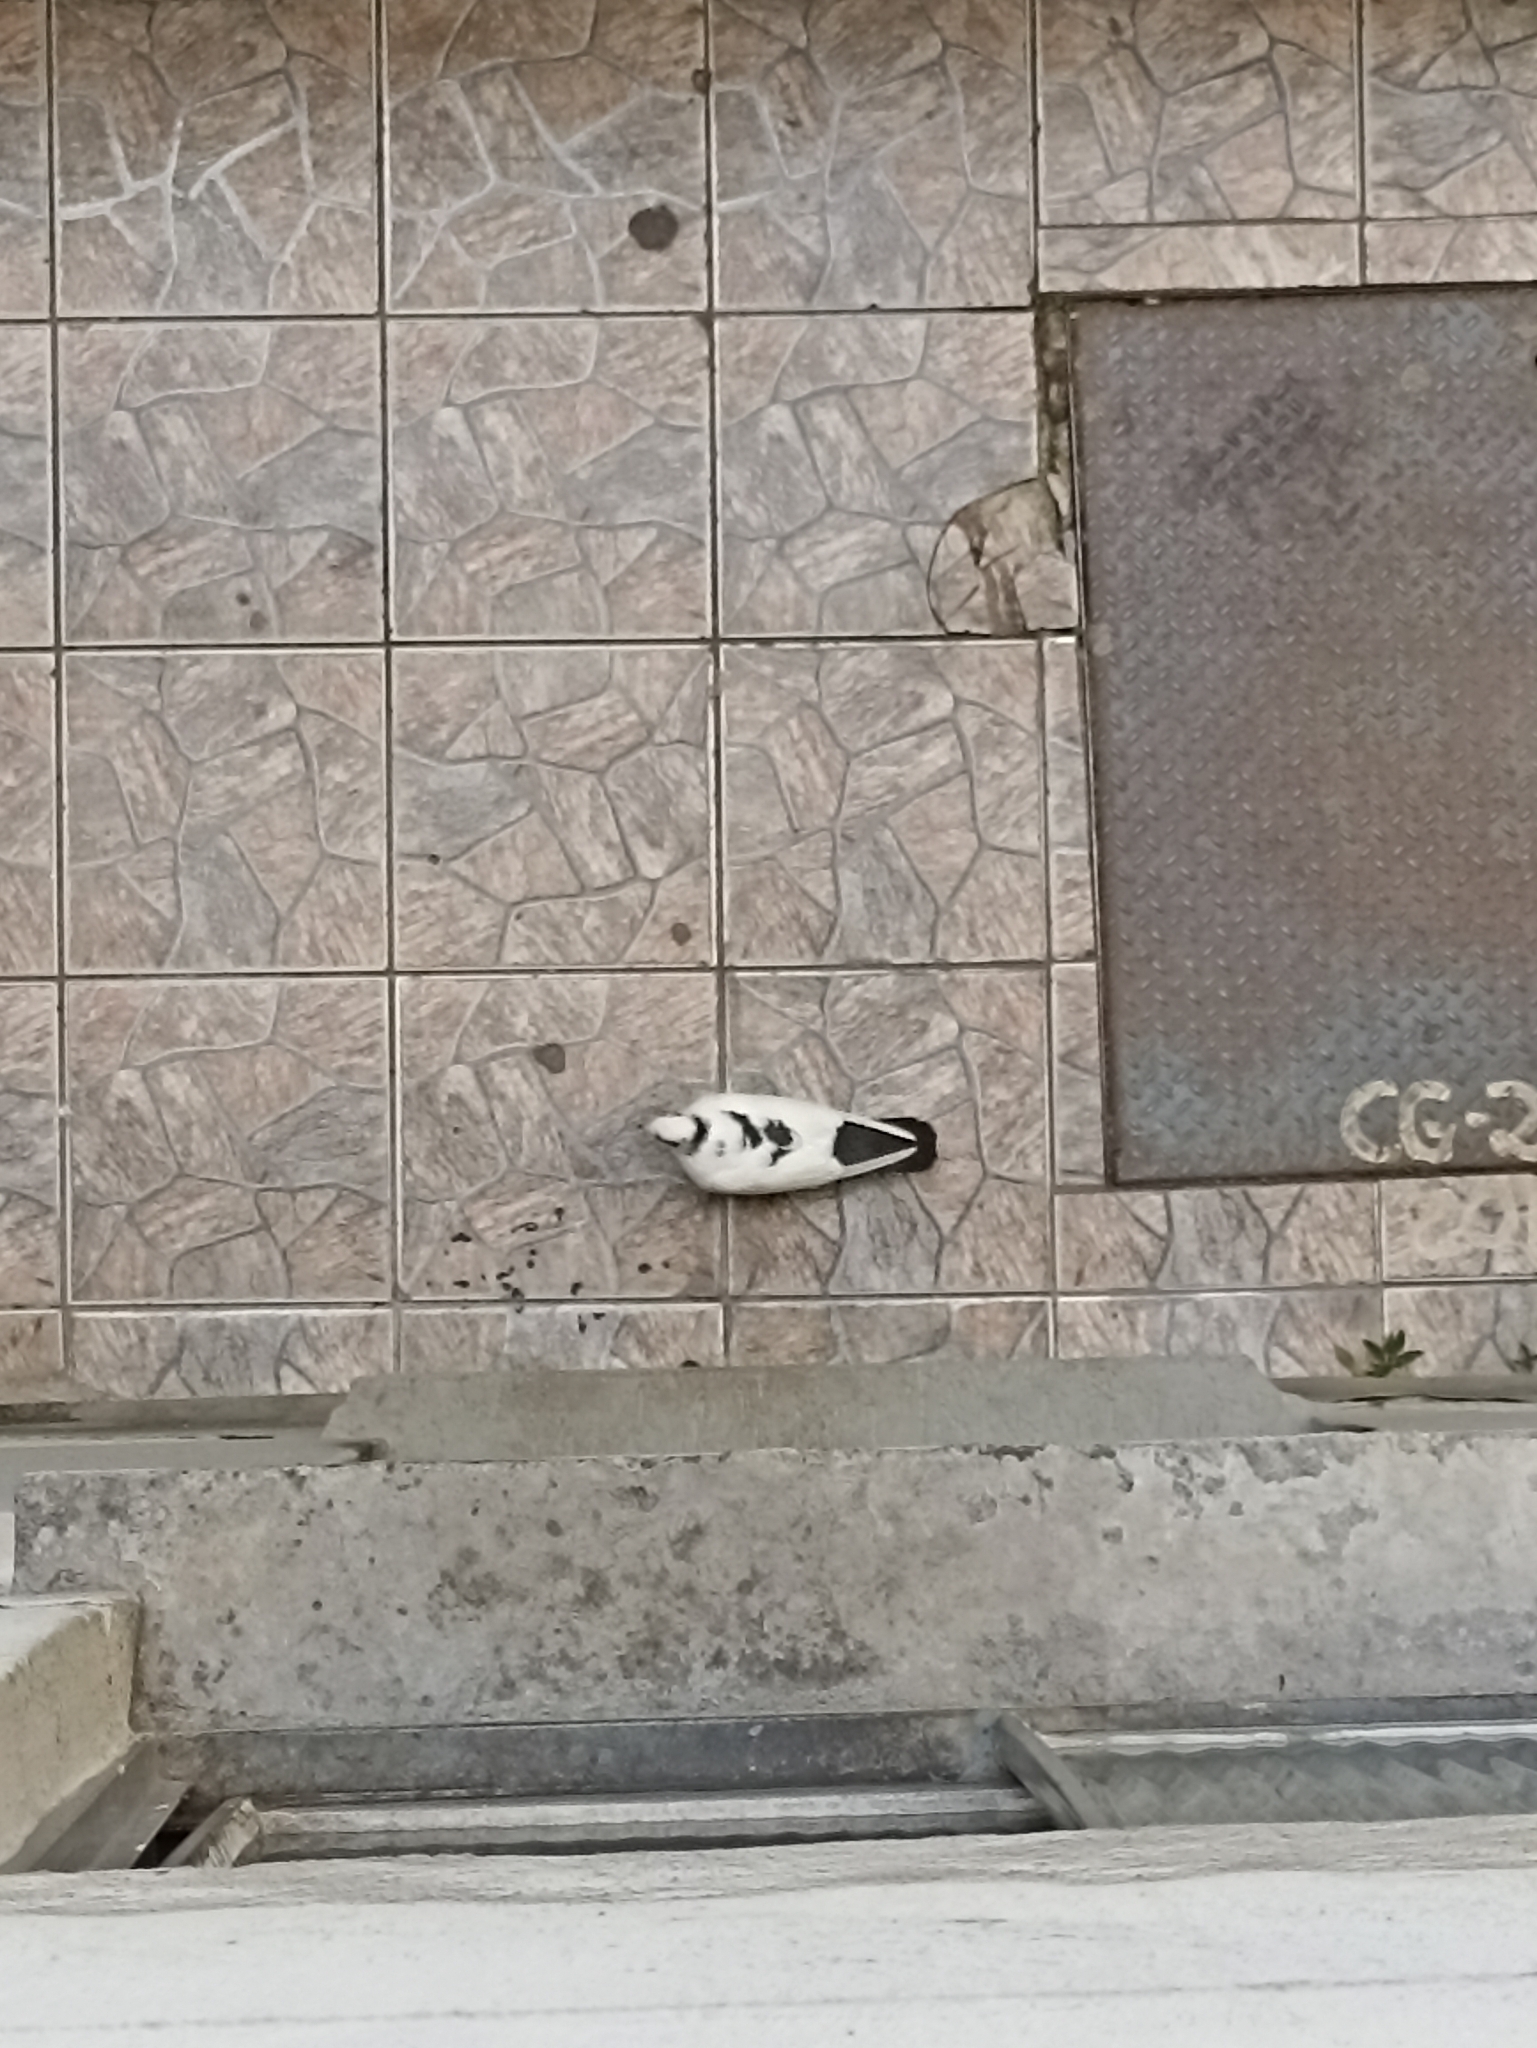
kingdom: Animalia
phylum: Chordata
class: Aves
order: Columbiformes
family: Columbidae
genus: Columba
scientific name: Columba livia
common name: Rock pigeon
